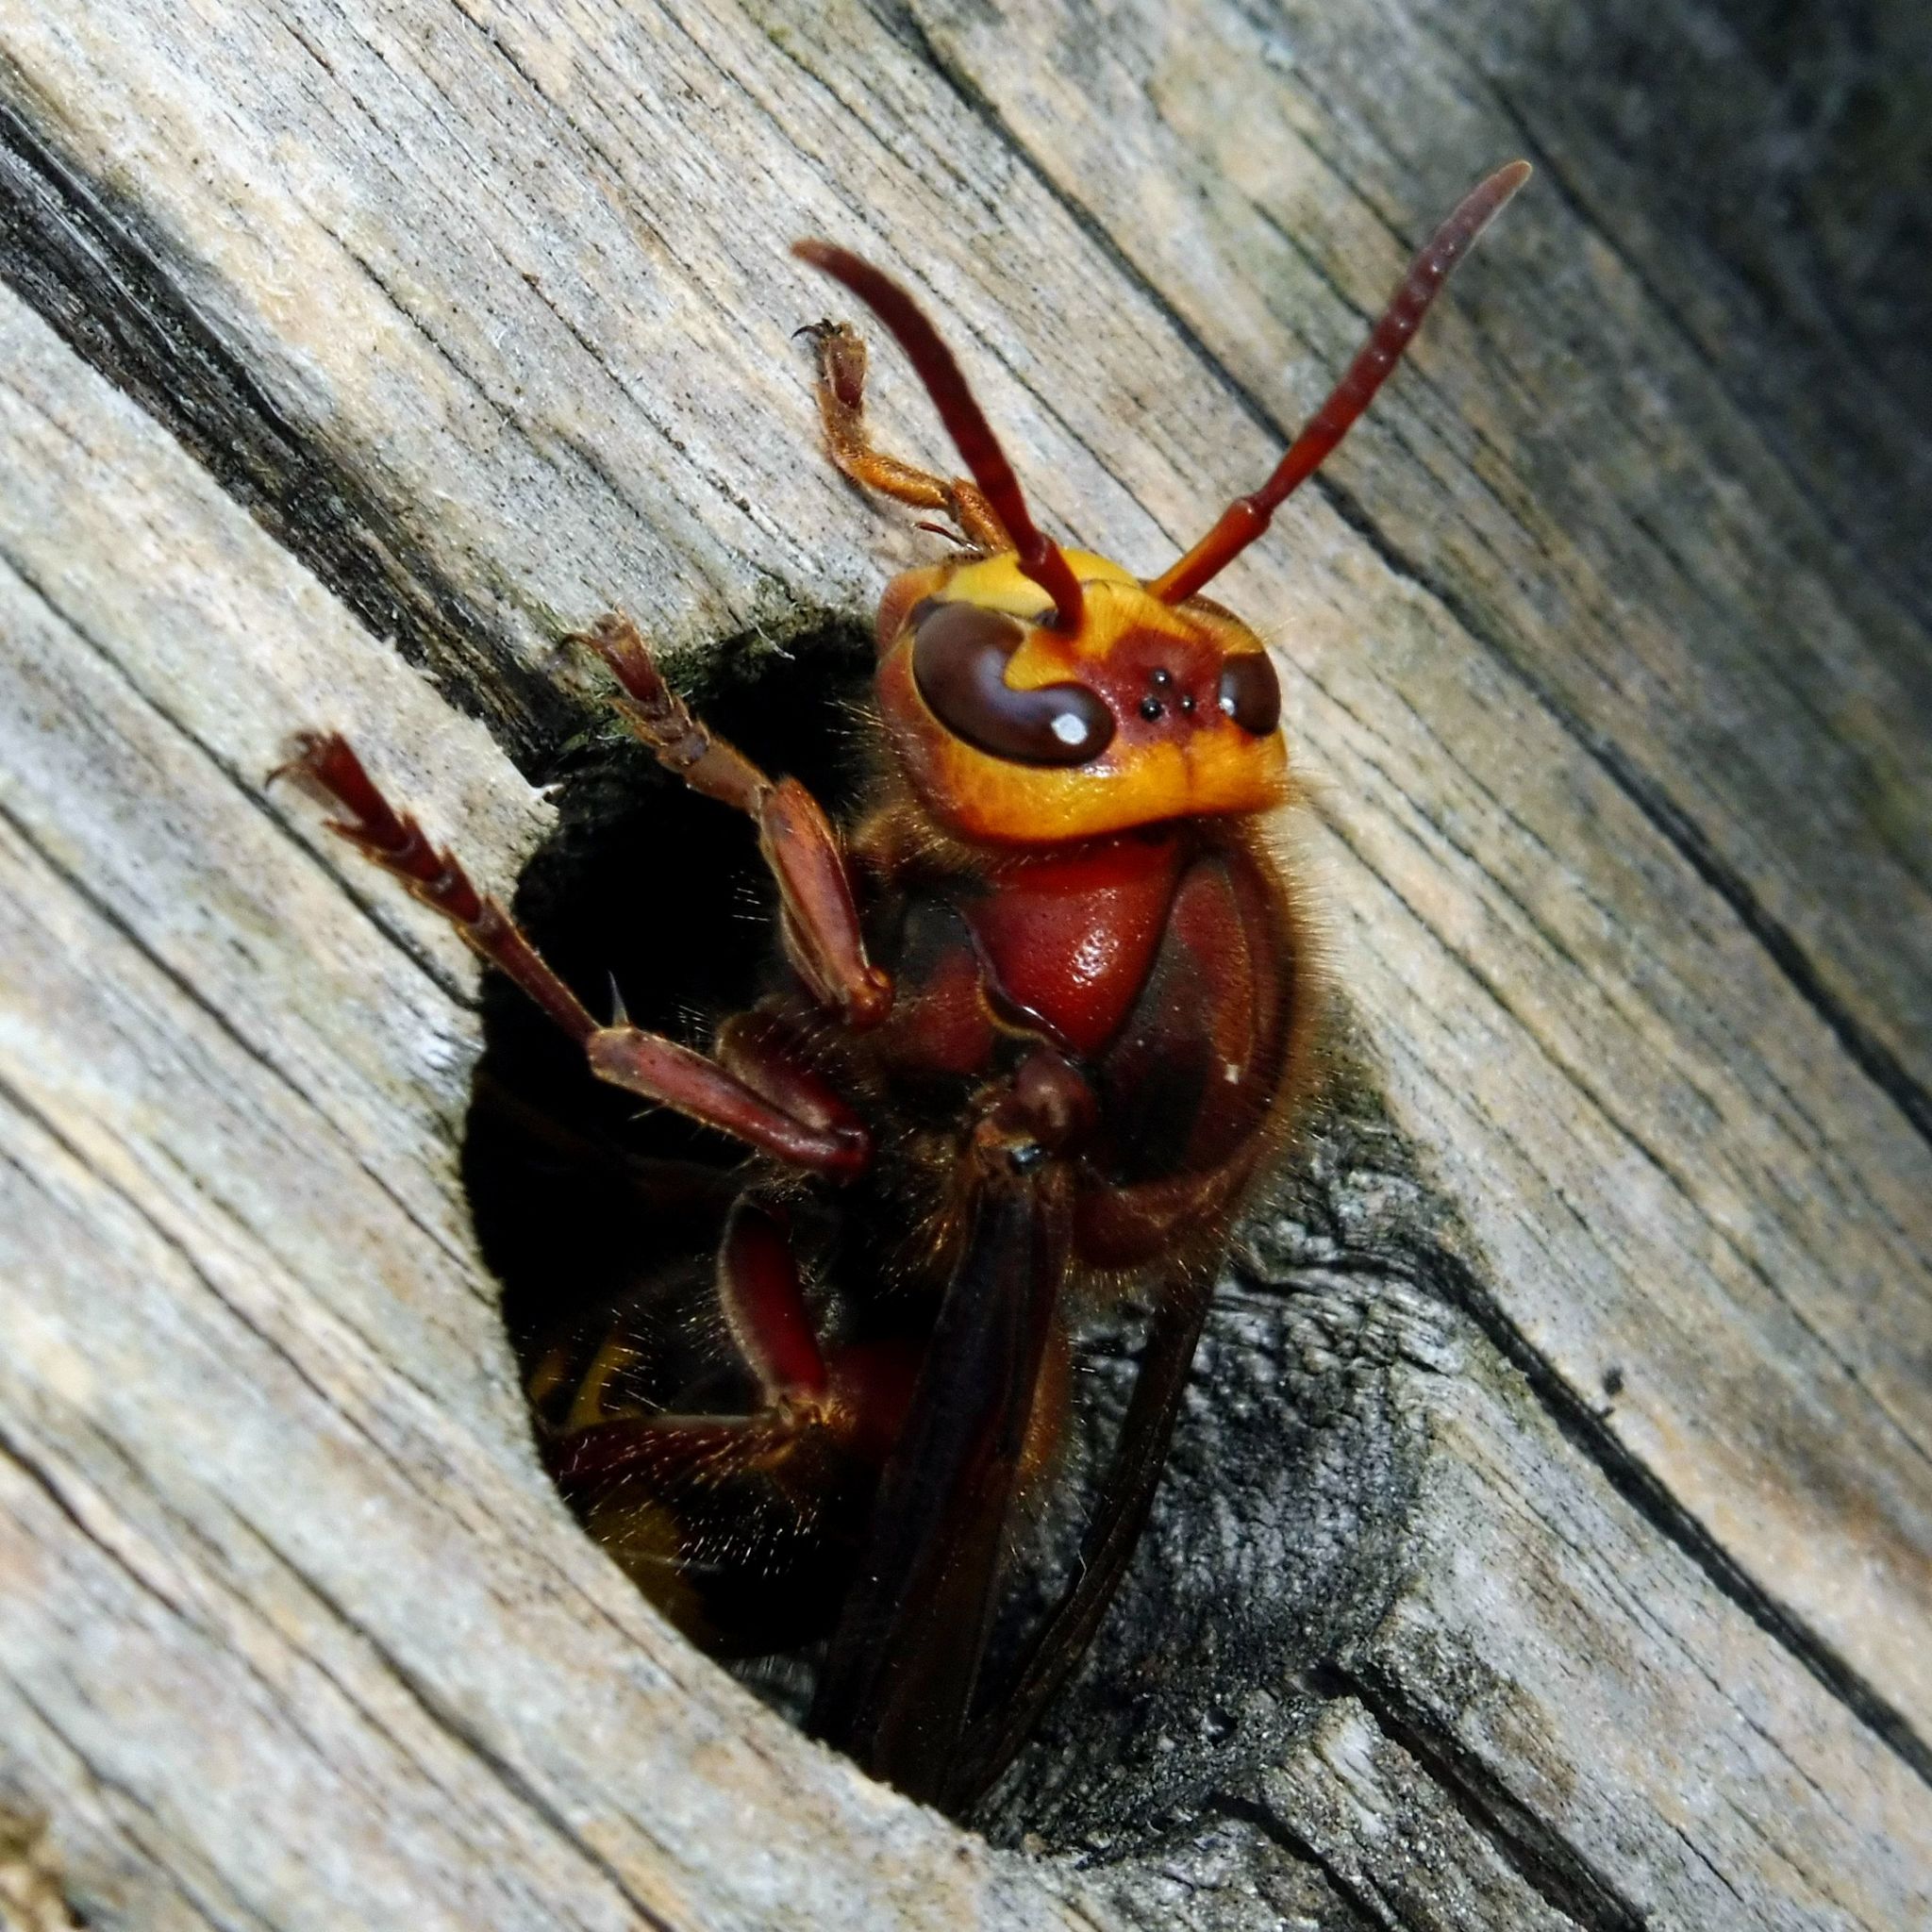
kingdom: Animalia
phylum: Arthropoda
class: Insecta
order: Hymenoptera
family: Vespidae
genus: Vespa
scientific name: Vespa crabro
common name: Hornet
